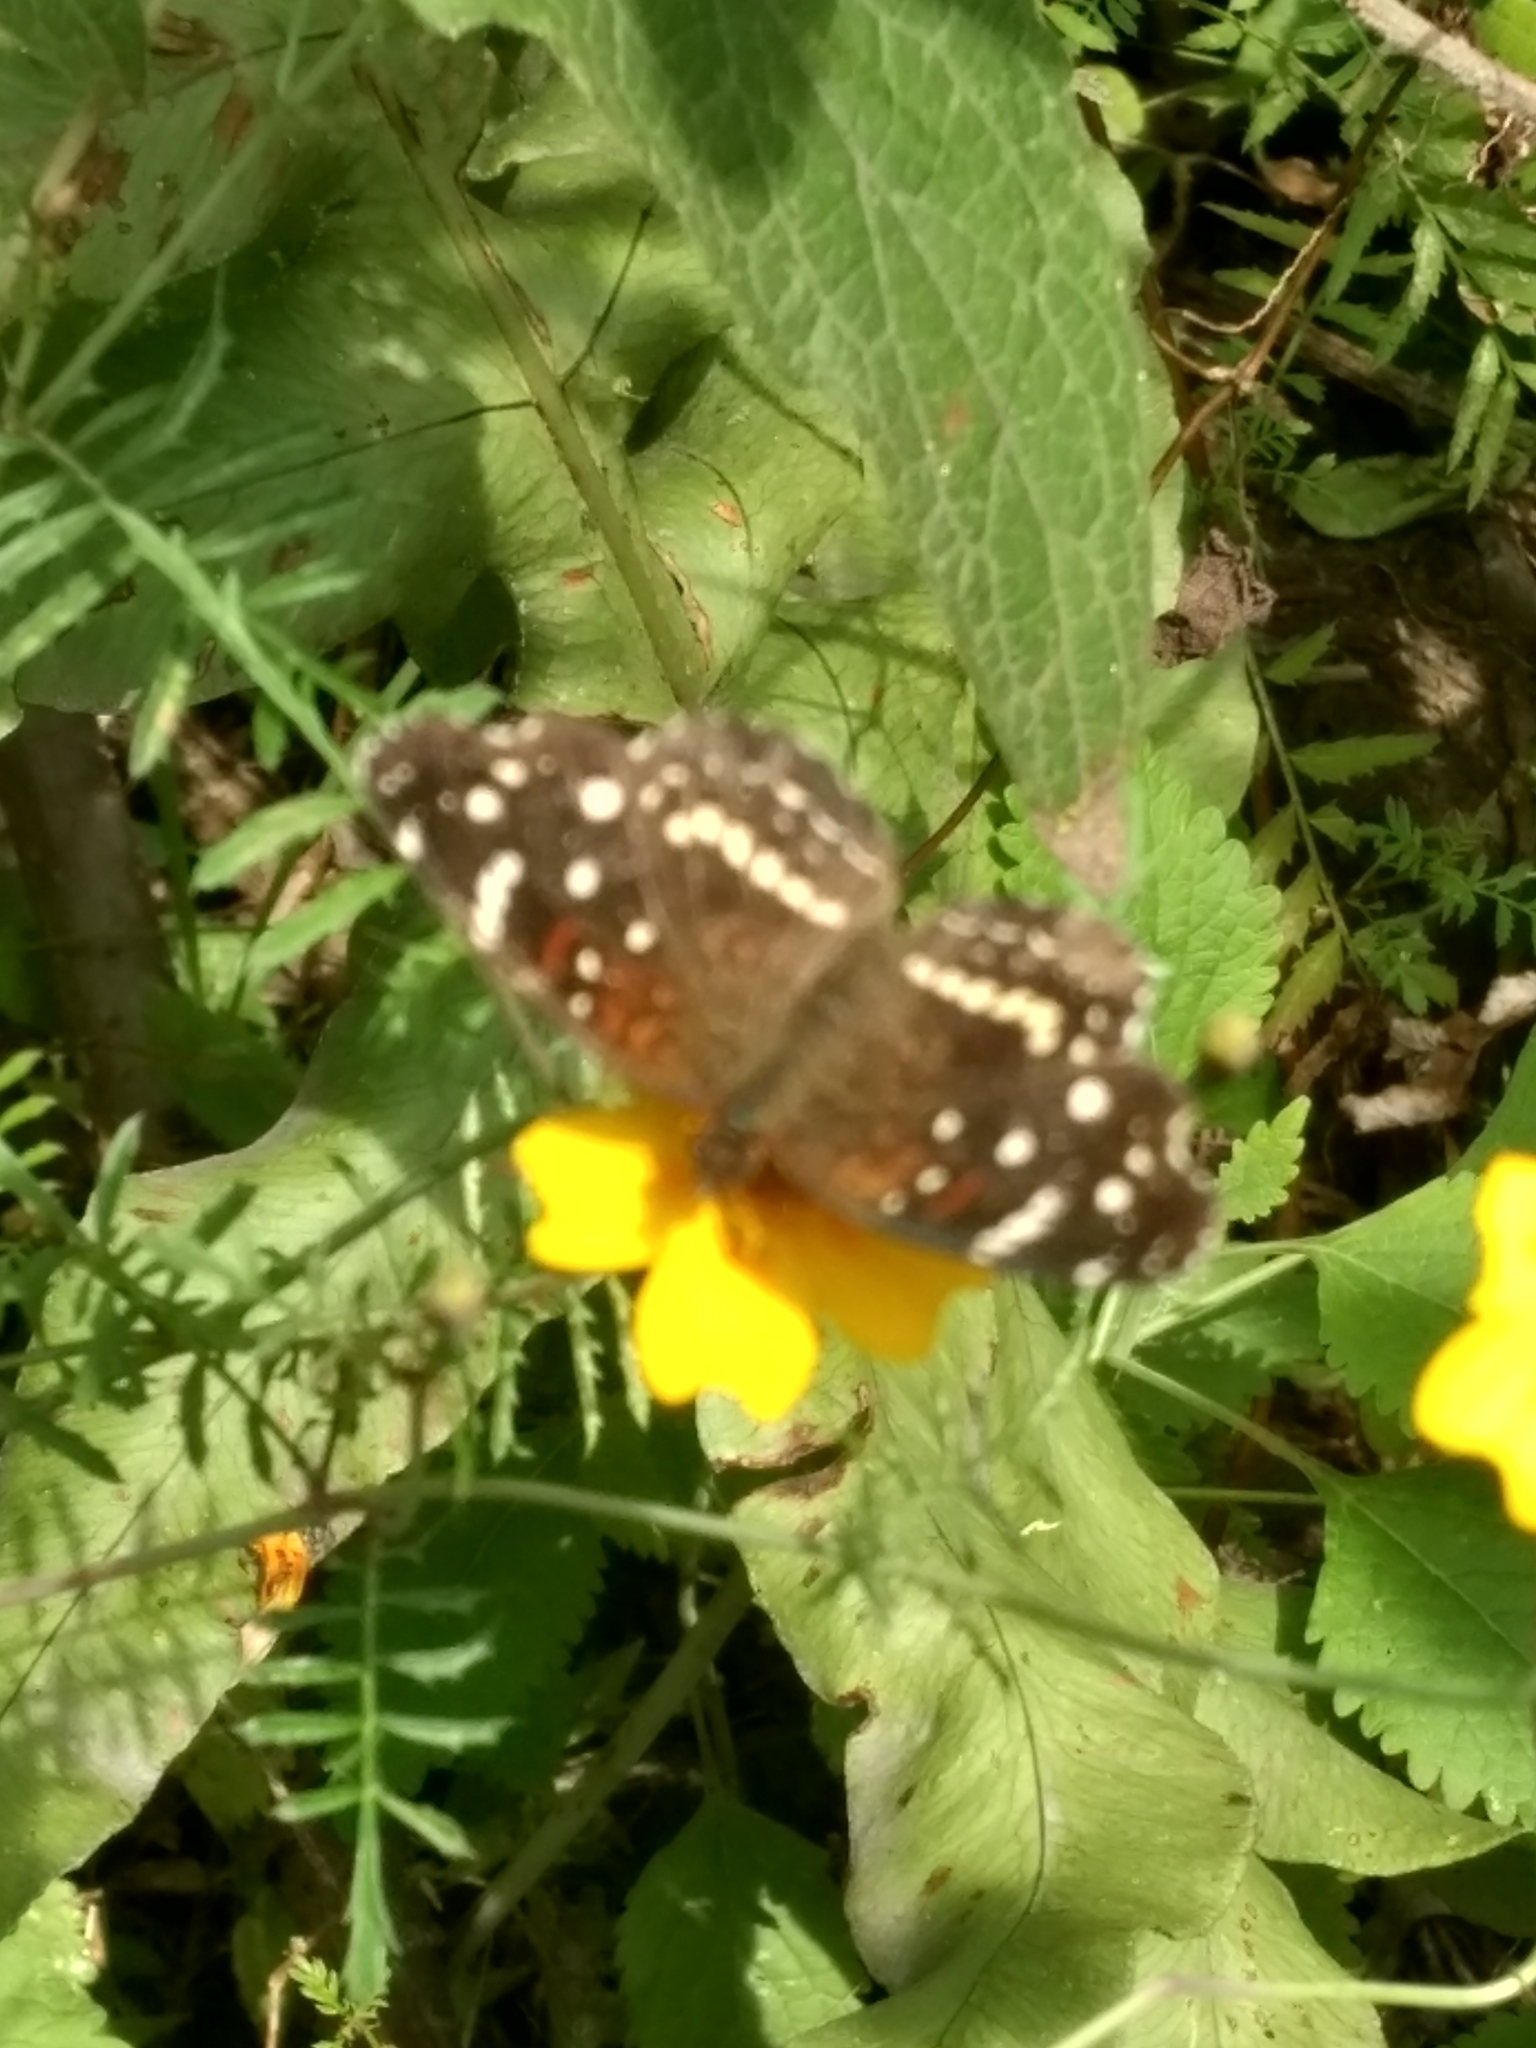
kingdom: Animalia
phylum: Arthropoda
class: Insecta
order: Lepidoptera
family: Nymphalidae
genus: Anthanassa
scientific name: Anthanassa texana
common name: Texan crescent
